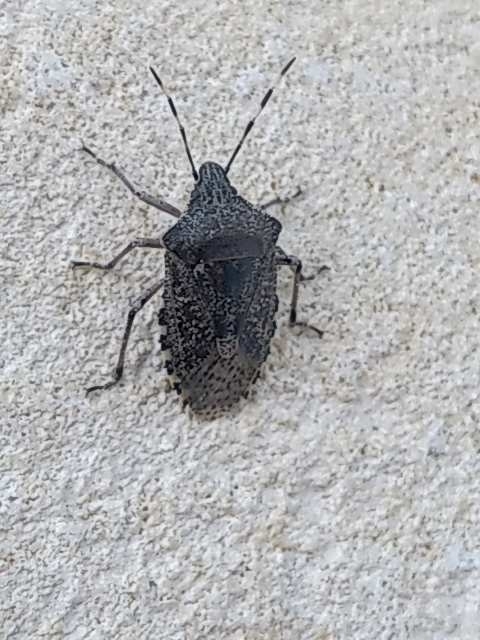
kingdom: Animalia
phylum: Arthropoda
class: Insecta
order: Hemiptera
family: Pentatomidae
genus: Rhaphigaster
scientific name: Rhaphigaster nebulosa
